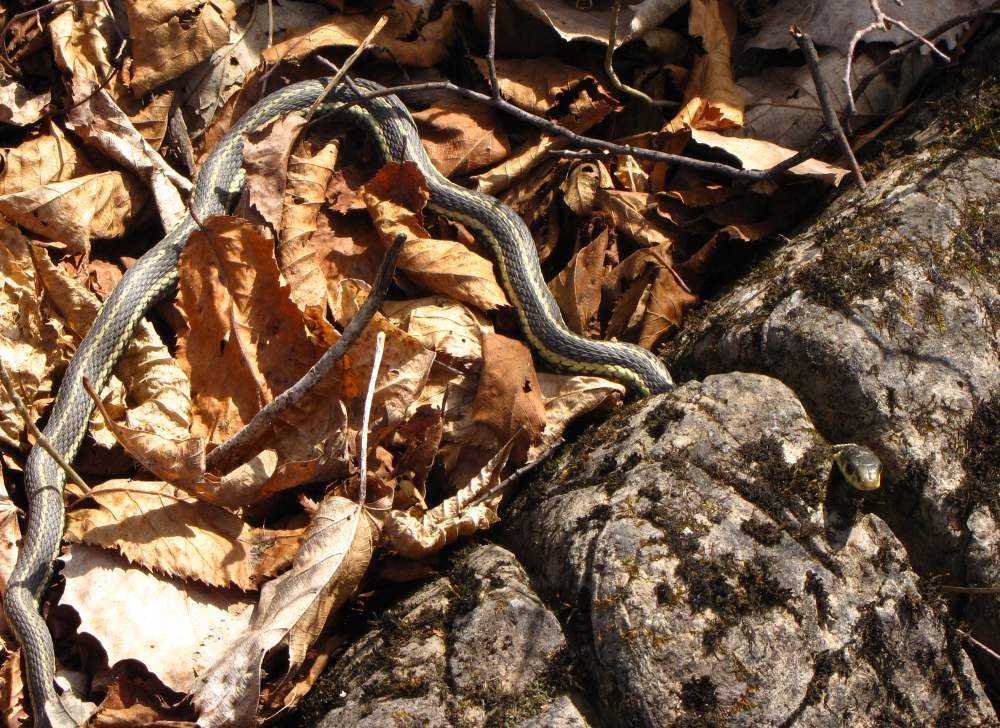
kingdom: Animalia
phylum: Chordata
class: Squamata
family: Colubridae
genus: Thamnophis
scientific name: Thamnophis sirtalis
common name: Common garter snake
